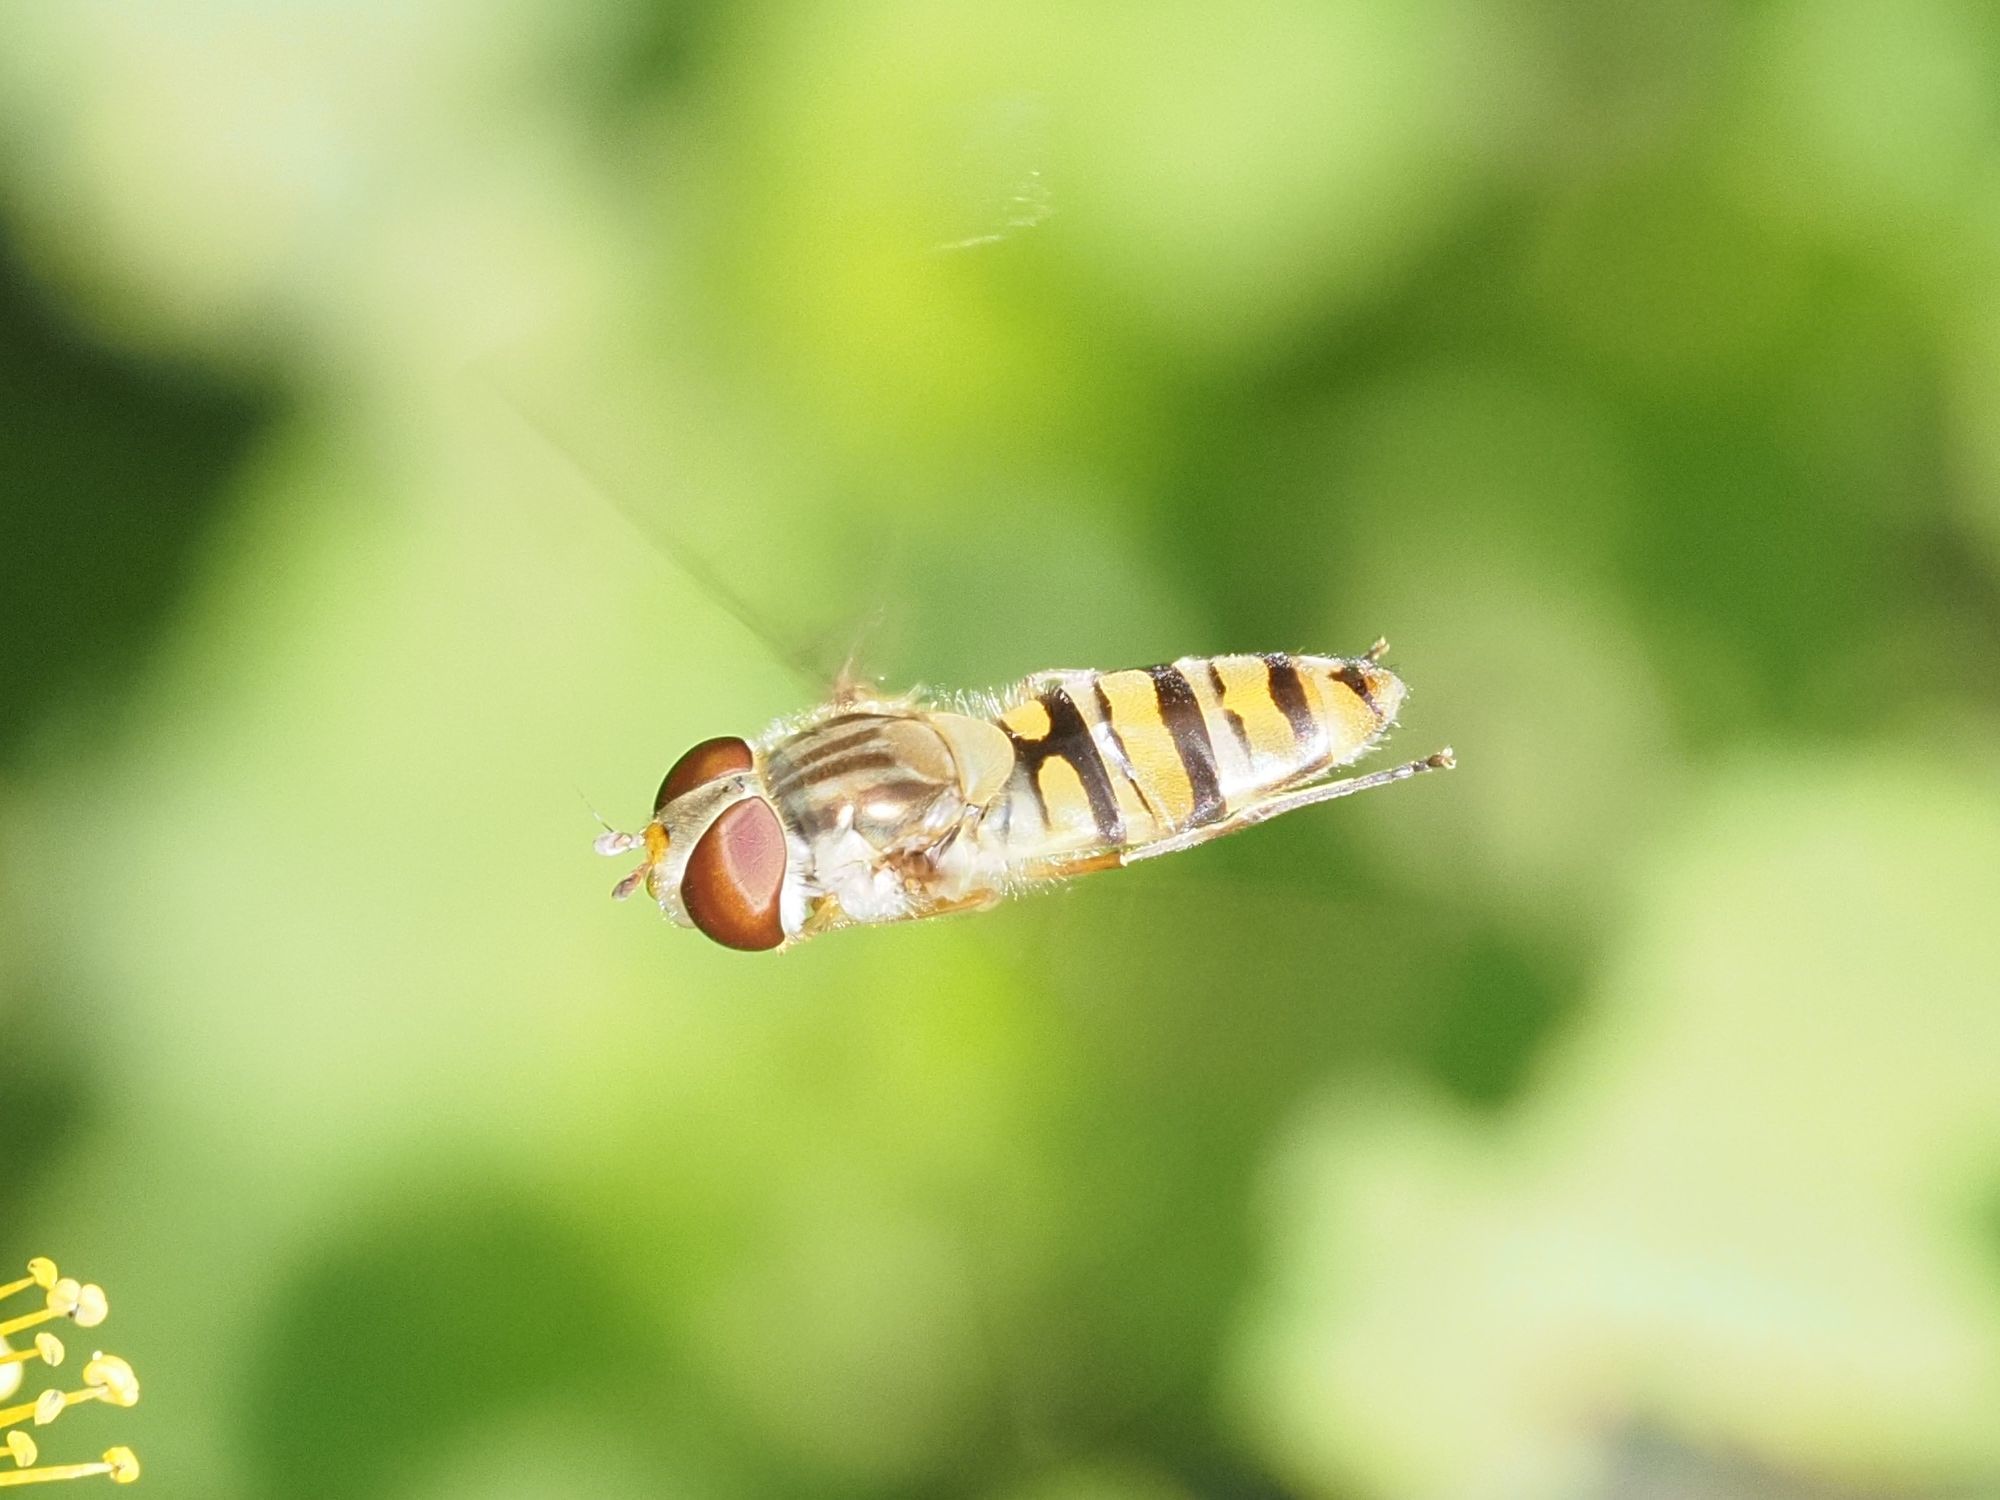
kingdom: Animalia
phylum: Arthropoda
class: Insecta
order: Diptera
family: Syrphidae
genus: Episyrphus
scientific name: Episyrphus balteatus
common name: Marmalade hoverfly
